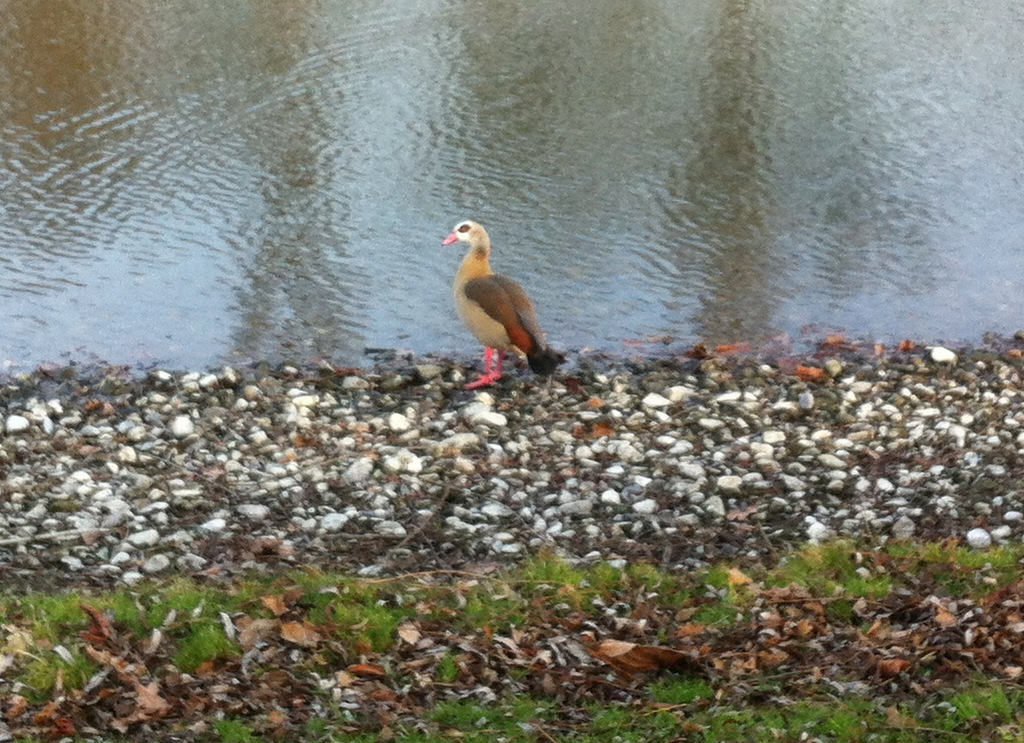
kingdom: Animalia
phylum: Chordata
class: Aves
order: Anseriformes
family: Anatidae
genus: Alopochen
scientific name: Alopochen aegyptiaca
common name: Egyptian goose
